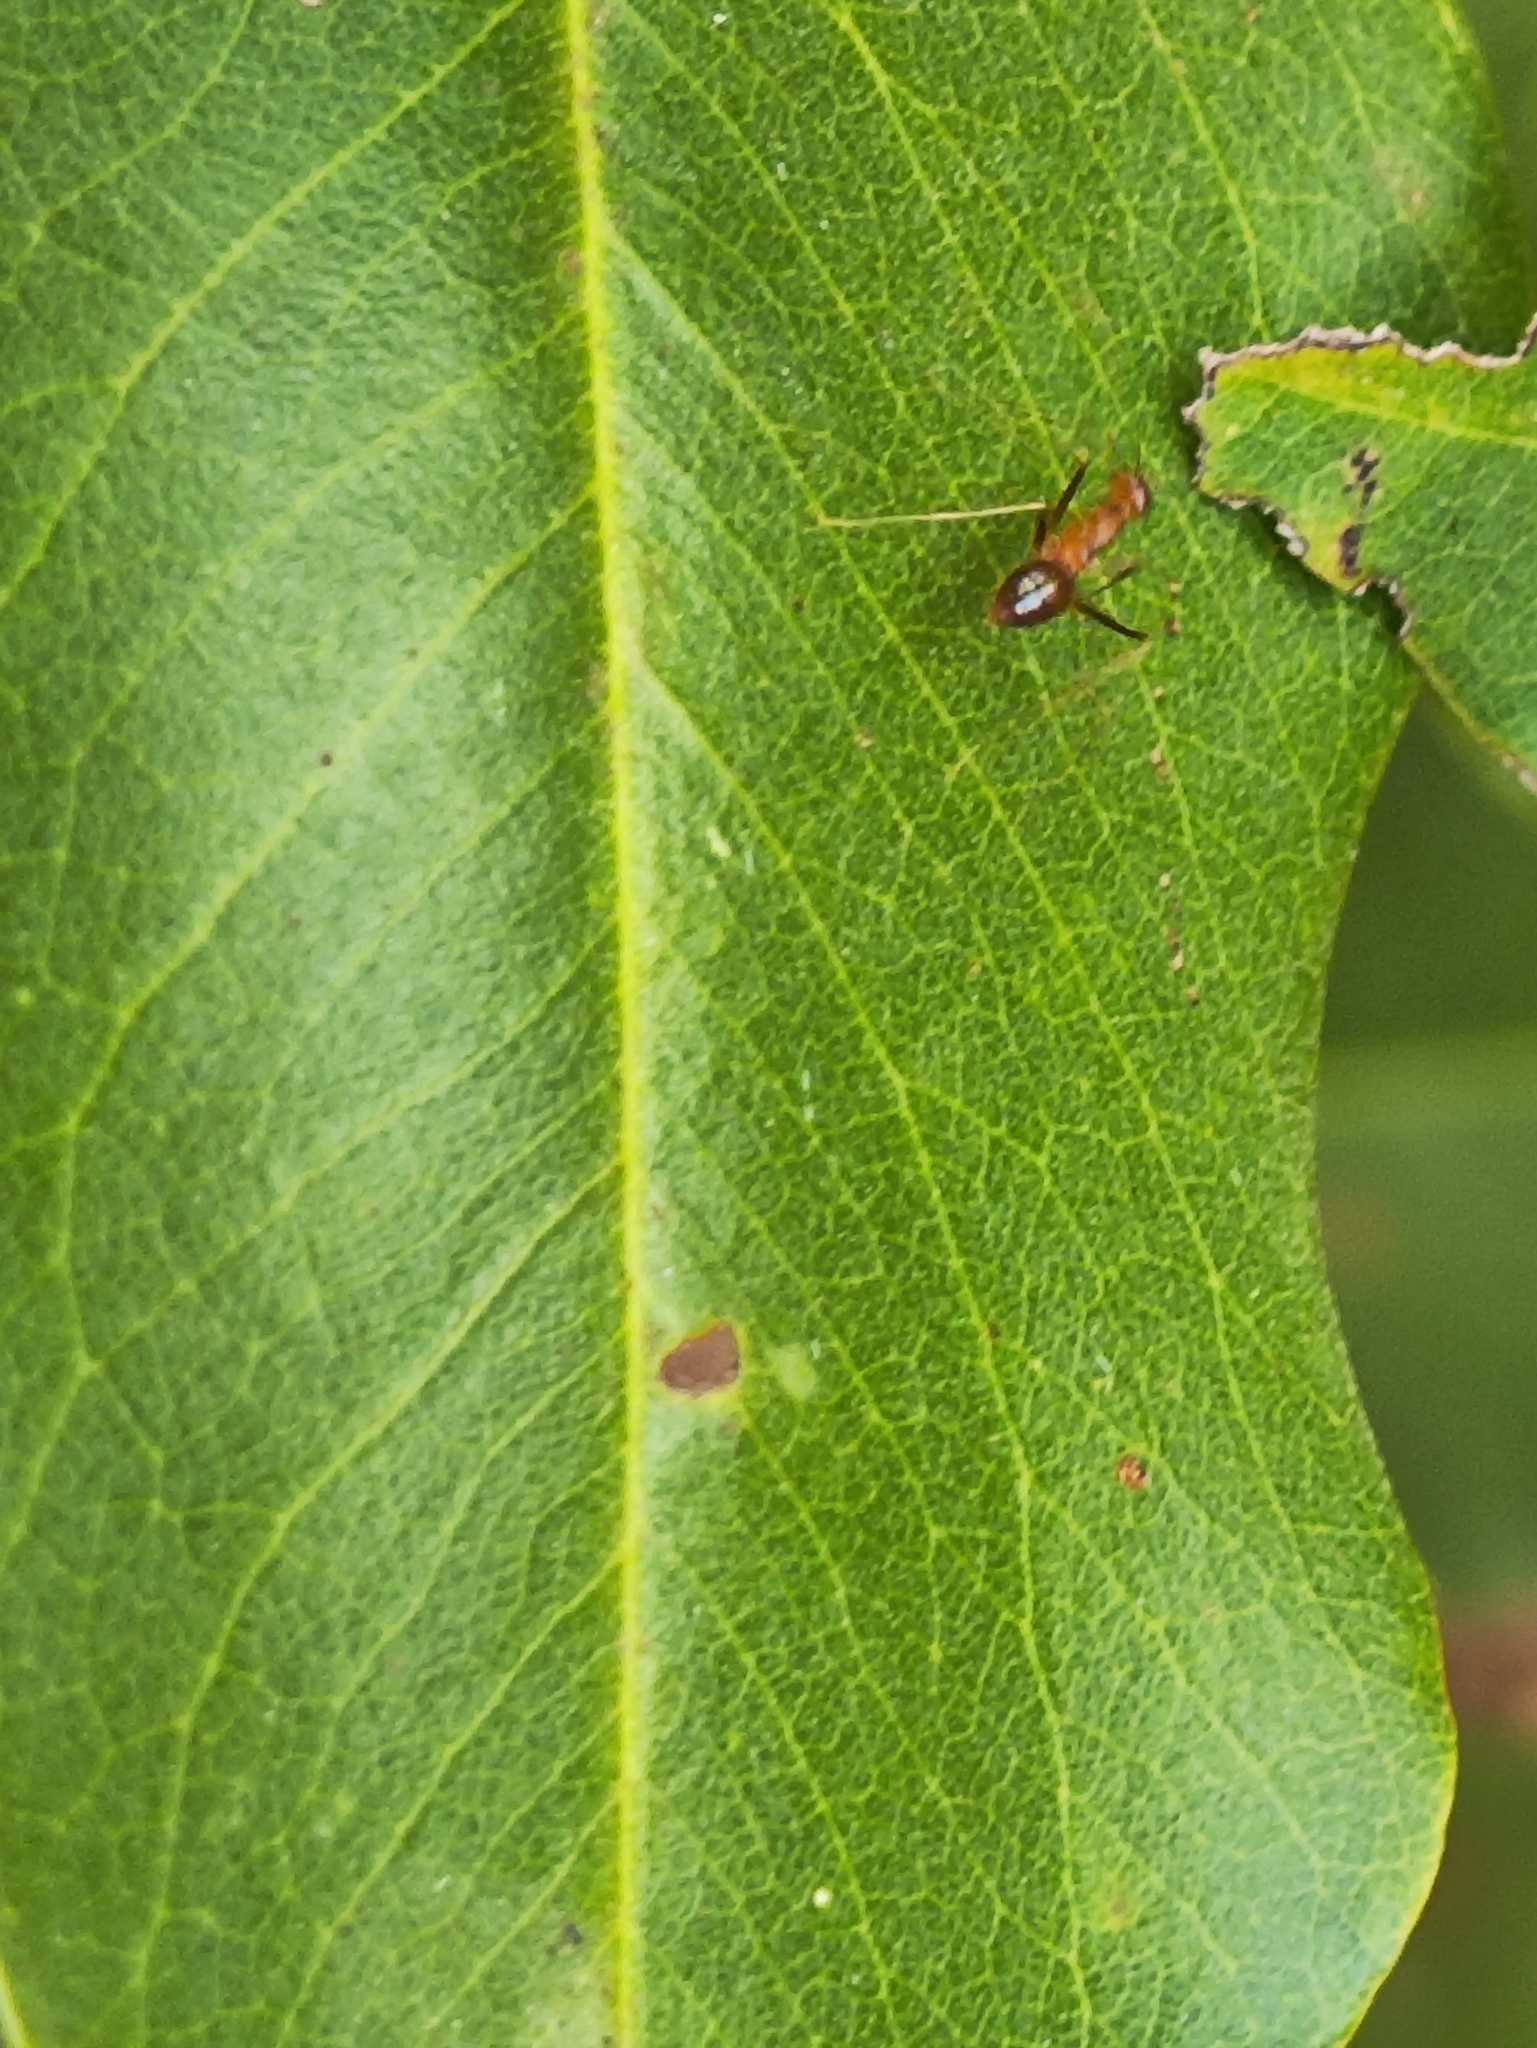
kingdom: Animalia
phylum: Arthropoda
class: Insecta
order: Hymenoptera
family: Formicidae
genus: Anoplolepis
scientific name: Anoplolepis gracilipes
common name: Ant
